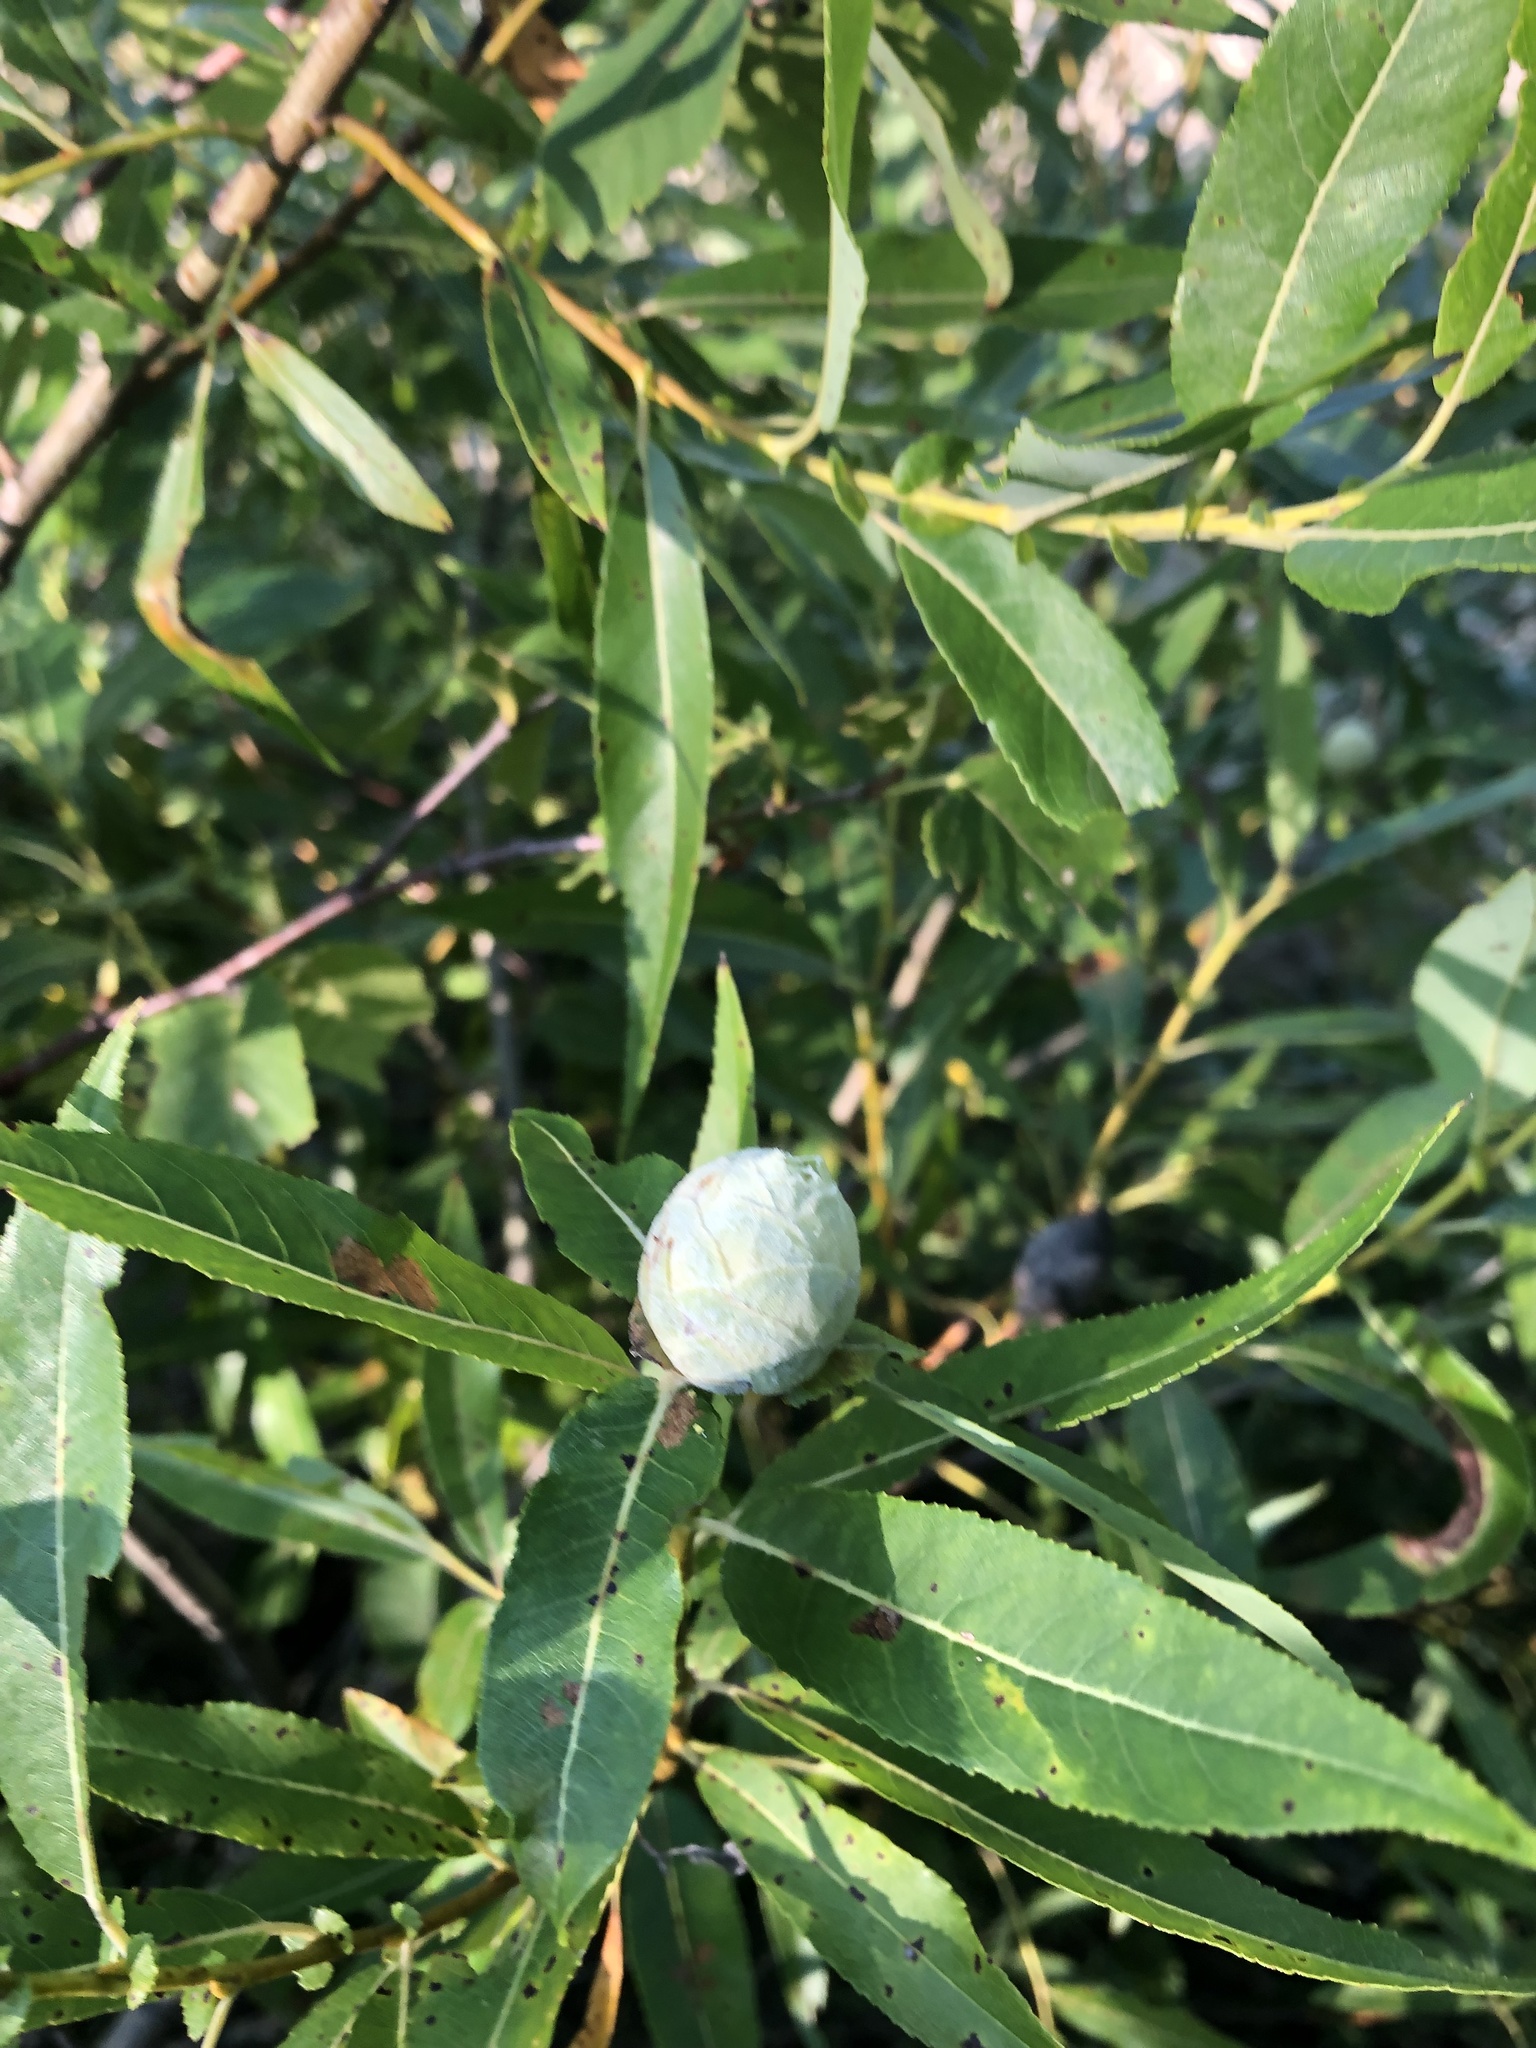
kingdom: Animalia
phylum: Arthropoda
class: Insecta
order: Diptera
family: Cecidomyiidae
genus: Rabdophaga
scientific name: Rabdophaga strobiloides
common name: Willow pinecone gall midge
